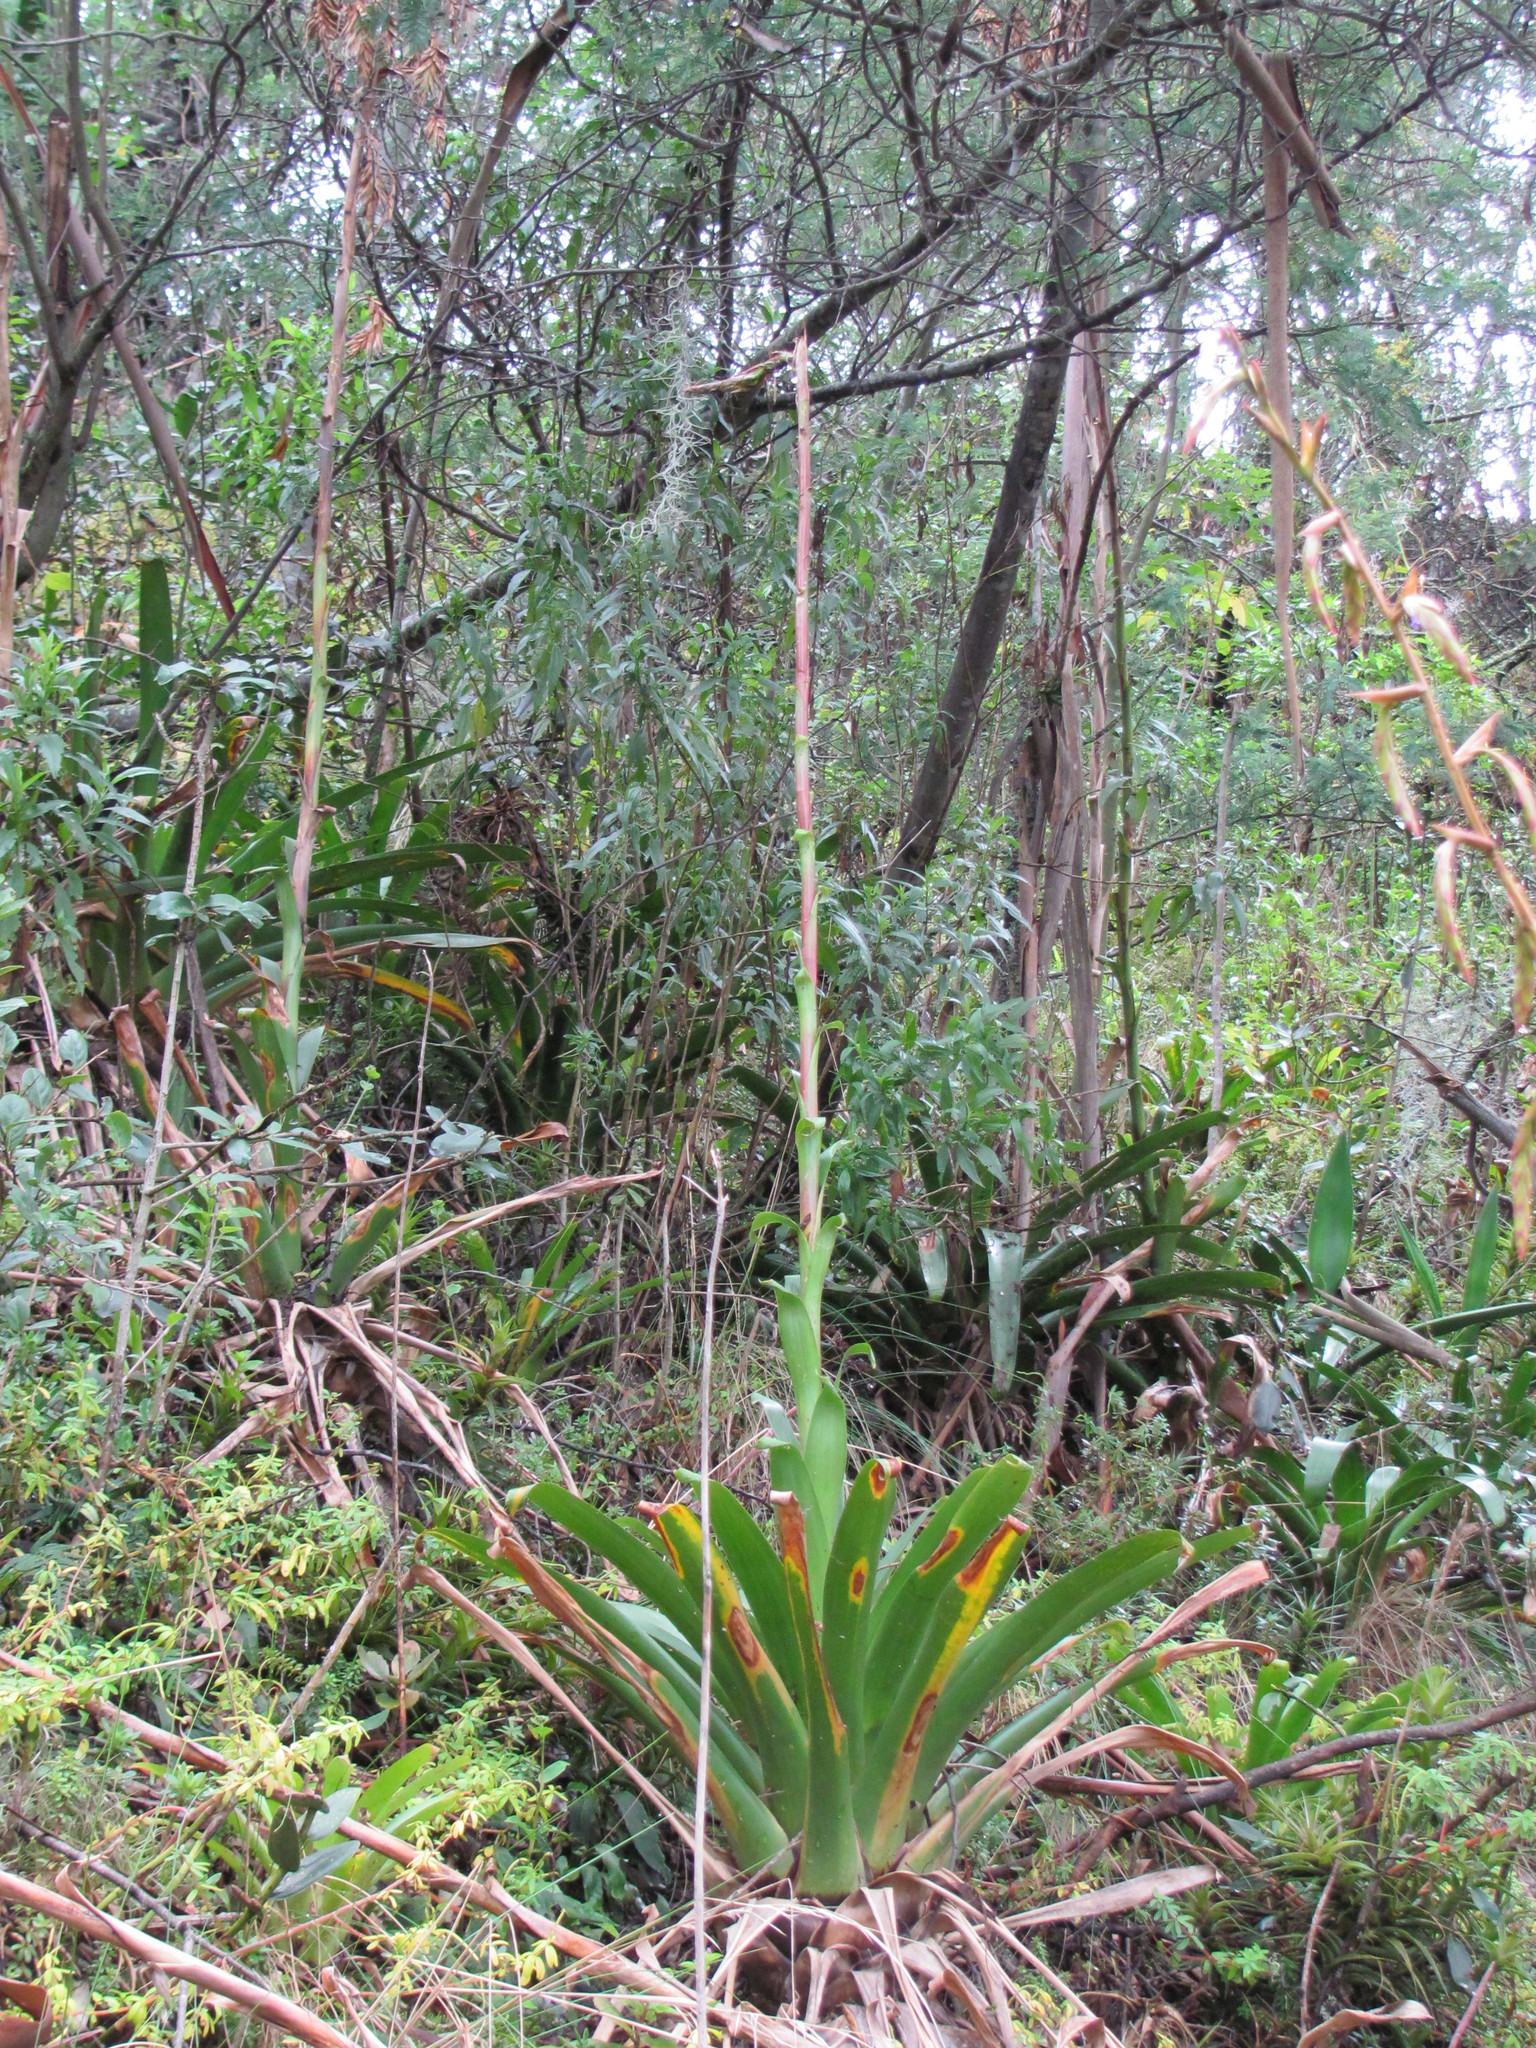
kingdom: Plantae
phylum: Tracheophyta
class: Liliopsida
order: Poales
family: Bromeliaceae
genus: Tillandsia
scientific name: Tillandsia denudata
